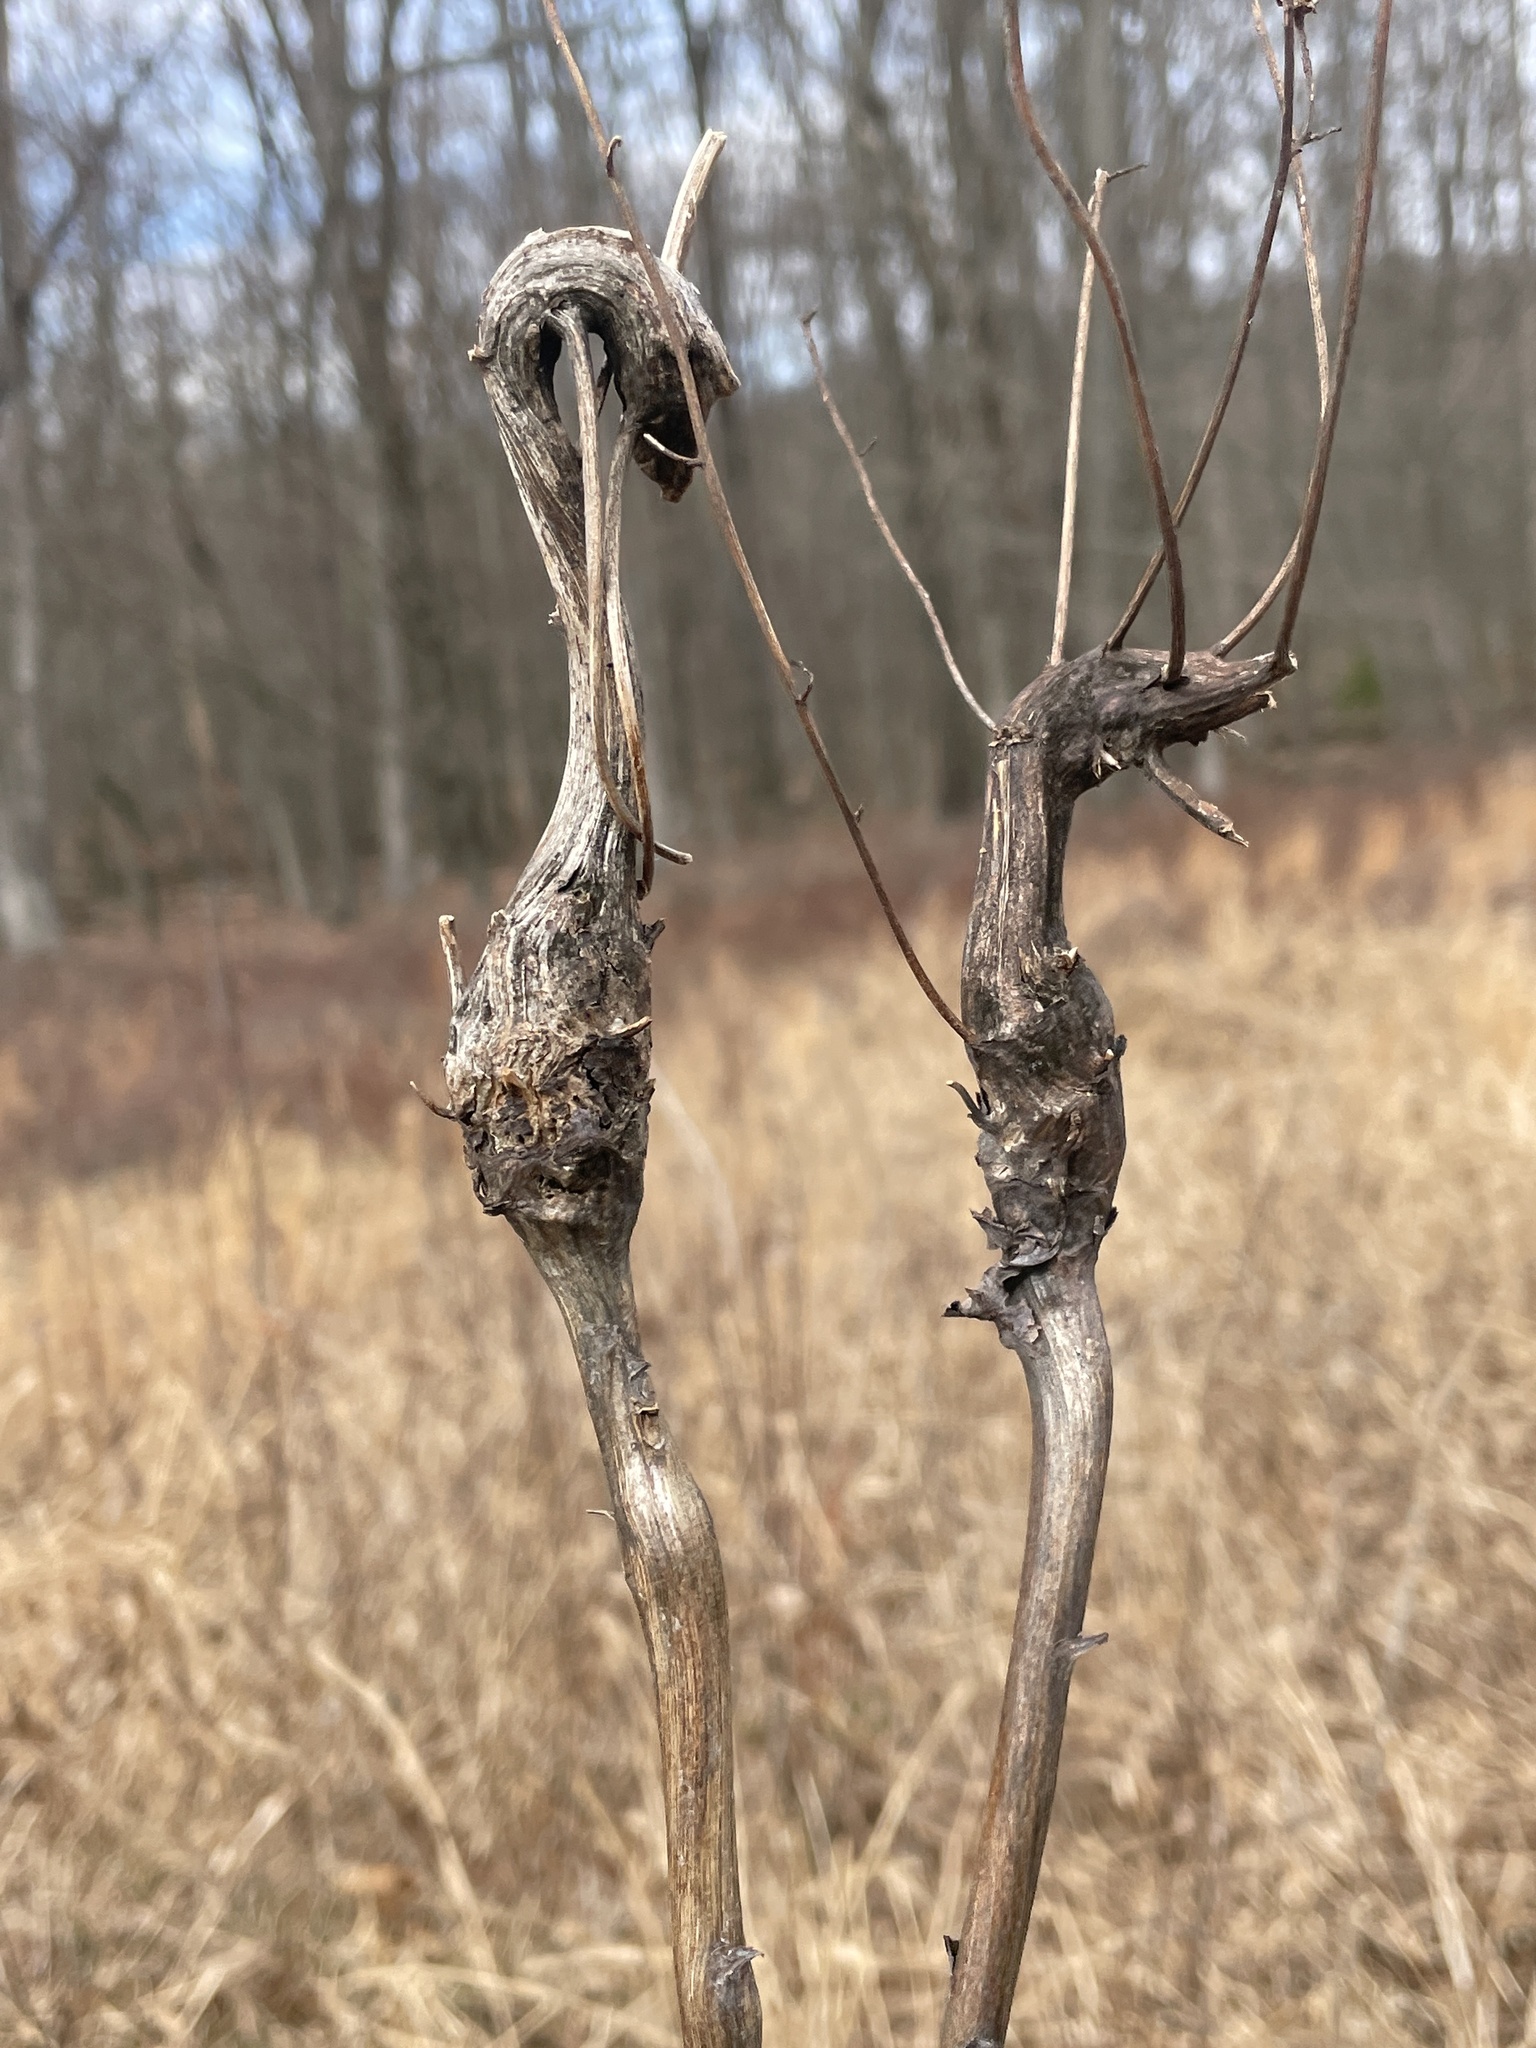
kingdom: Animalia
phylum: Arthropoda
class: Insecta
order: Hymenoptera
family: Cynipidae
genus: Aulacidea
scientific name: Aulacidea
